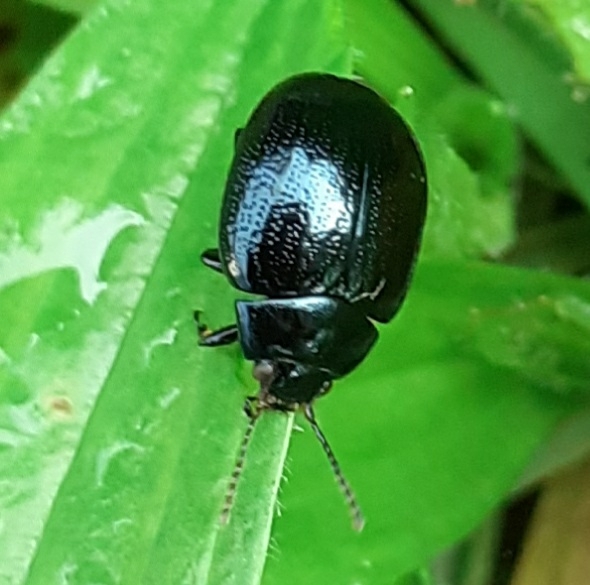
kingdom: Animalia
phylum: Arthropoda
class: Insecta
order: Coleoptera
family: Chrysomelidae
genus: Chrysolina
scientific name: Chrysolina haemoptera
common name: Plantain leaf beetle
